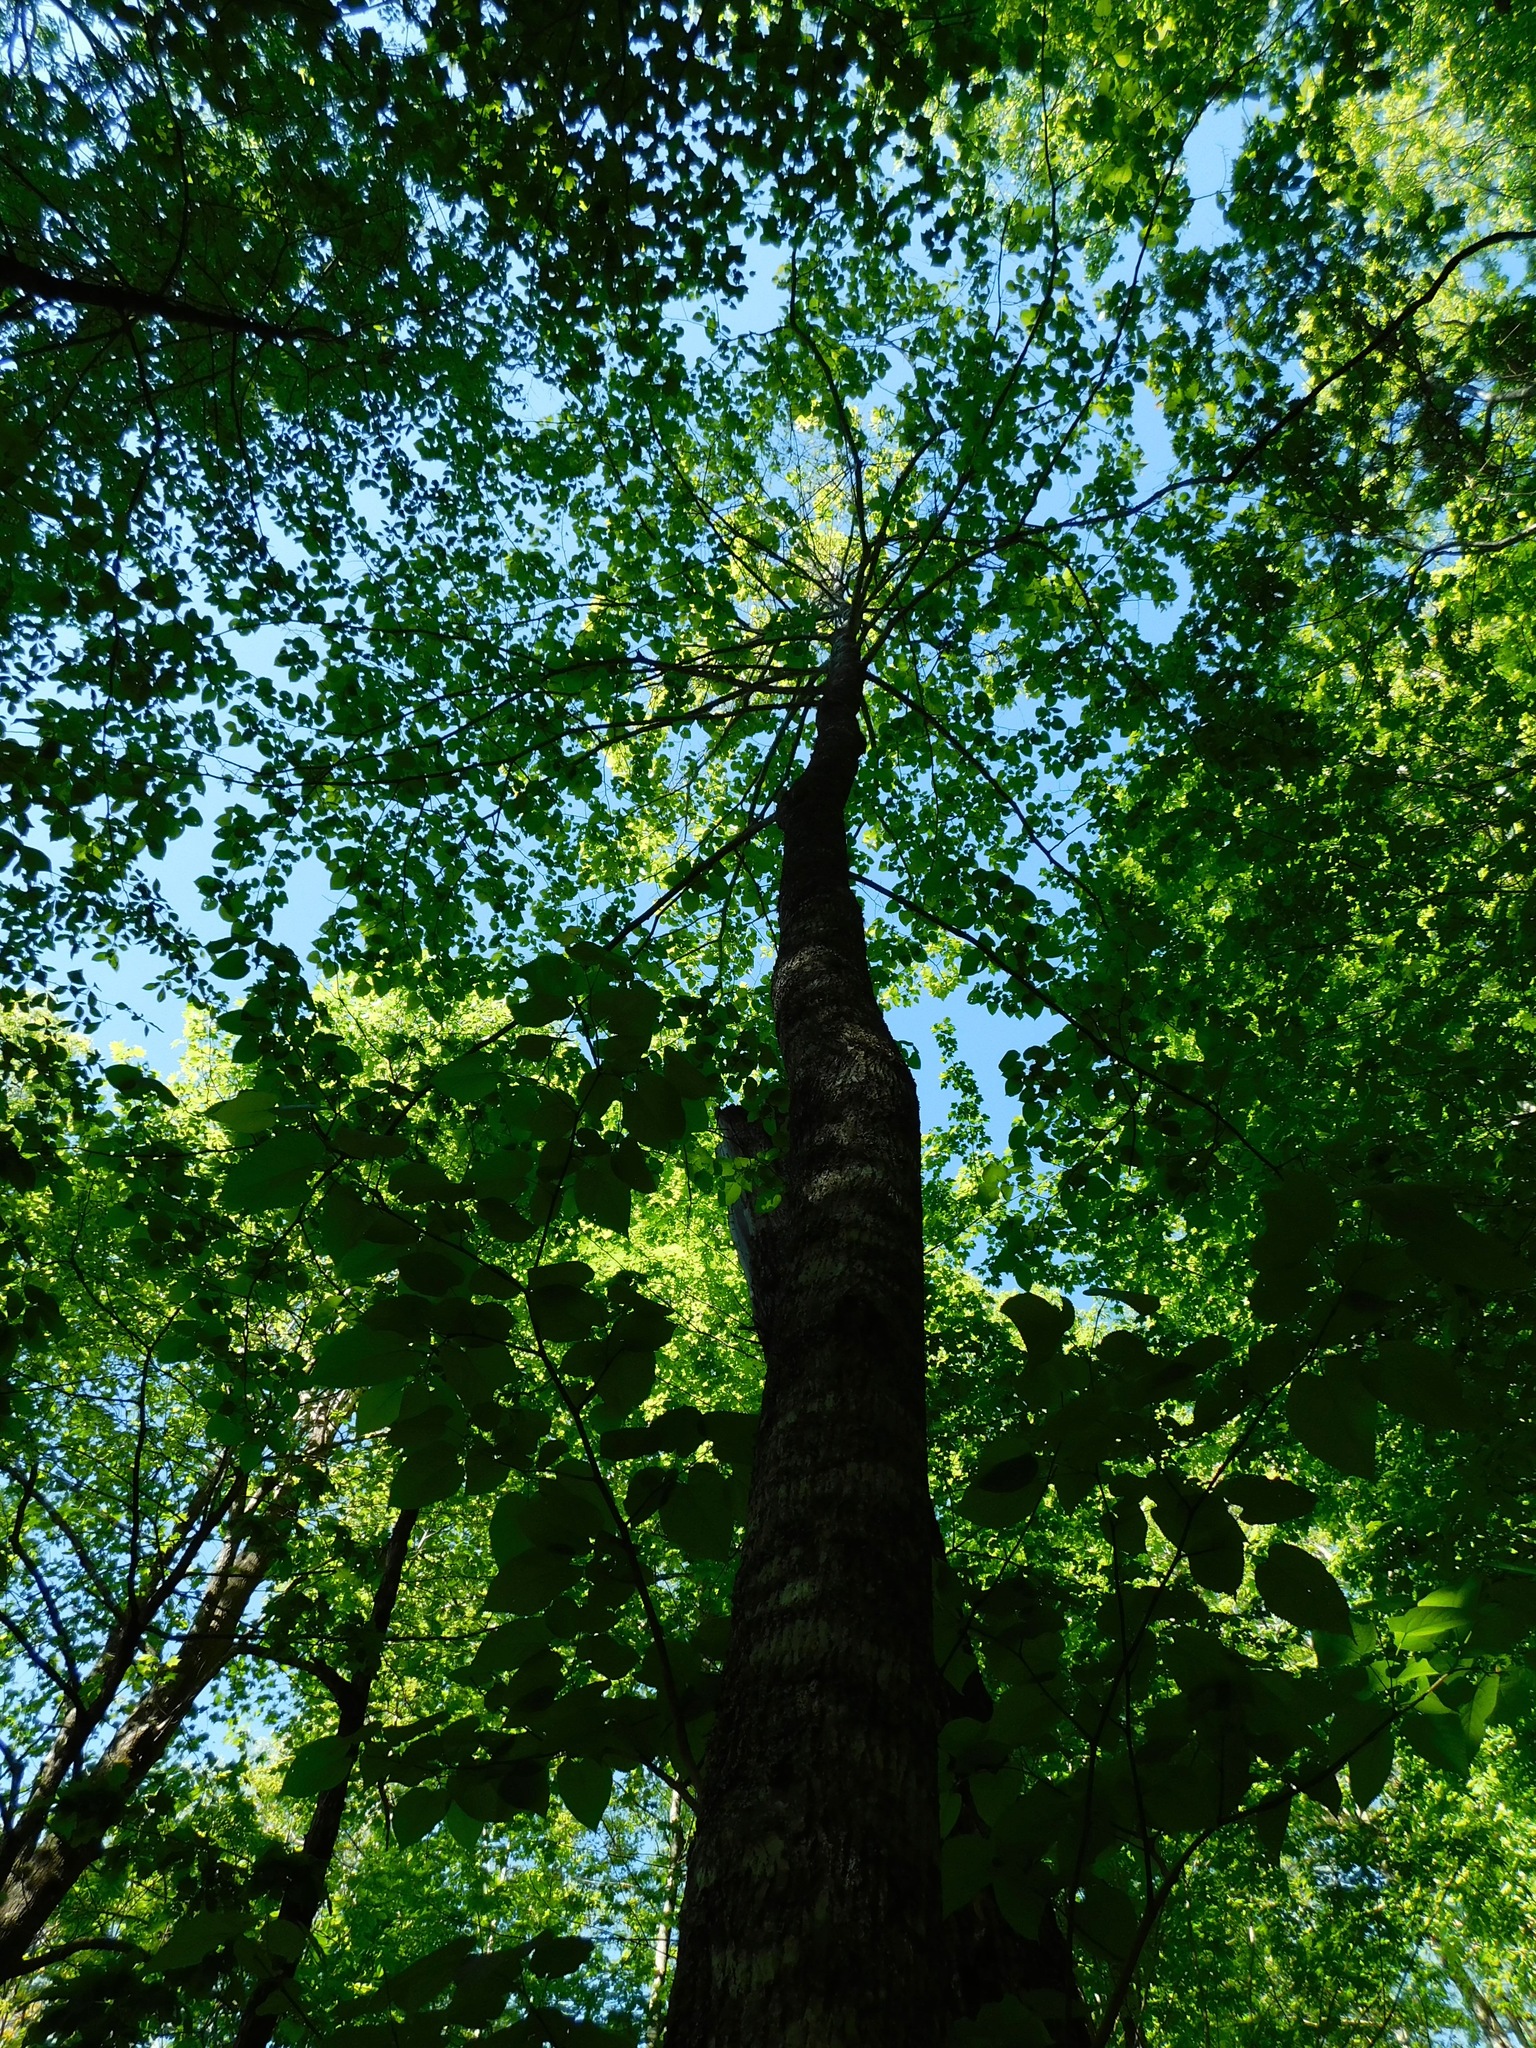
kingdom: Plantae
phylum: Tracheophyta
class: Magnoliopsida
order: Malvales
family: Malvaceae
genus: Tilia
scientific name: Tilia americana
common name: Basswood
